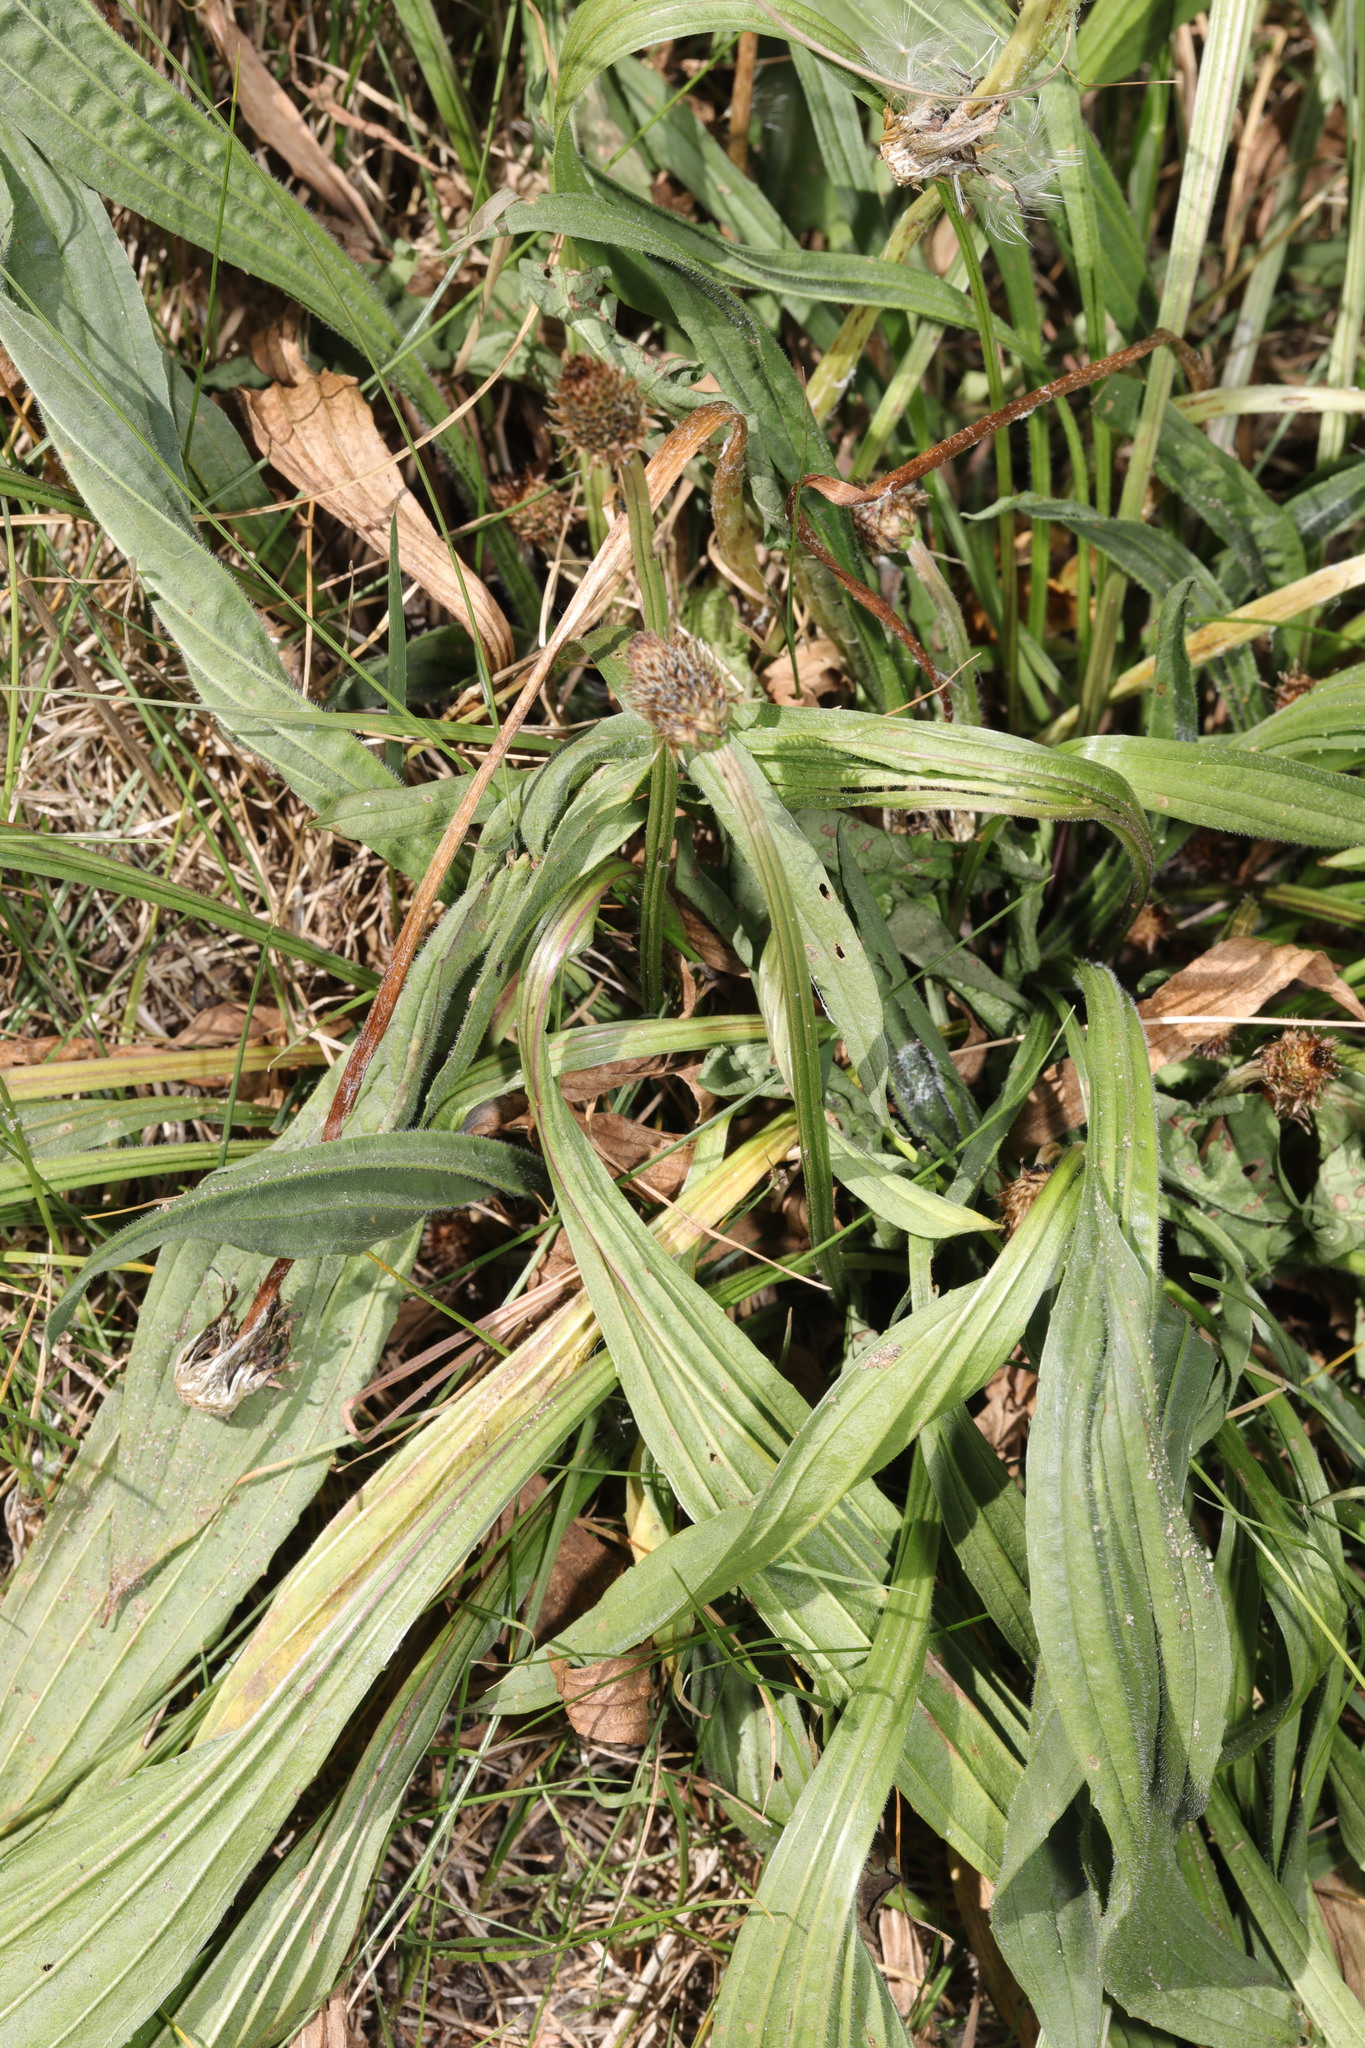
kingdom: Plantae
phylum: Tracheophyta
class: Magnoliopsida
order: Lamiales
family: Plantaginaceae
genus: Plantago
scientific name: Plantago lanceolata
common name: Ribwort plantain
